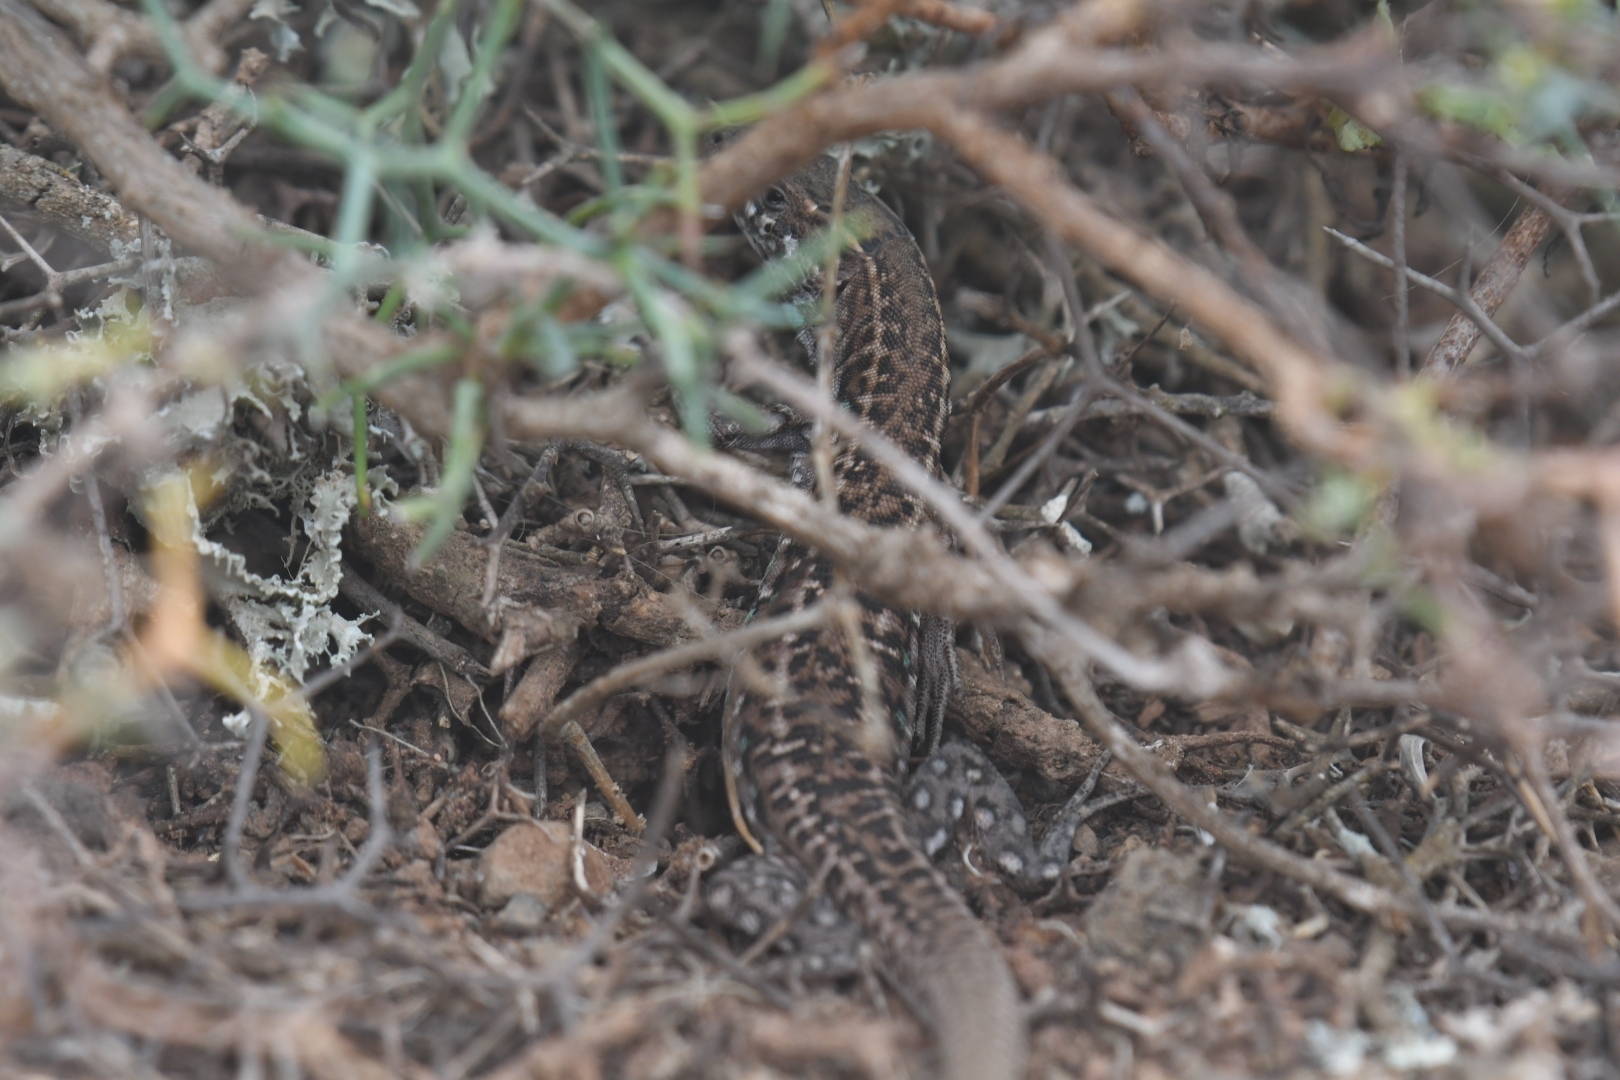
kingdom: Animalia
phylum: Chordata
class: Squamata
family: Lacertidae
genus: Gallotia
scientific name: Gallotia atlantica
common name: Atlantic lizard
